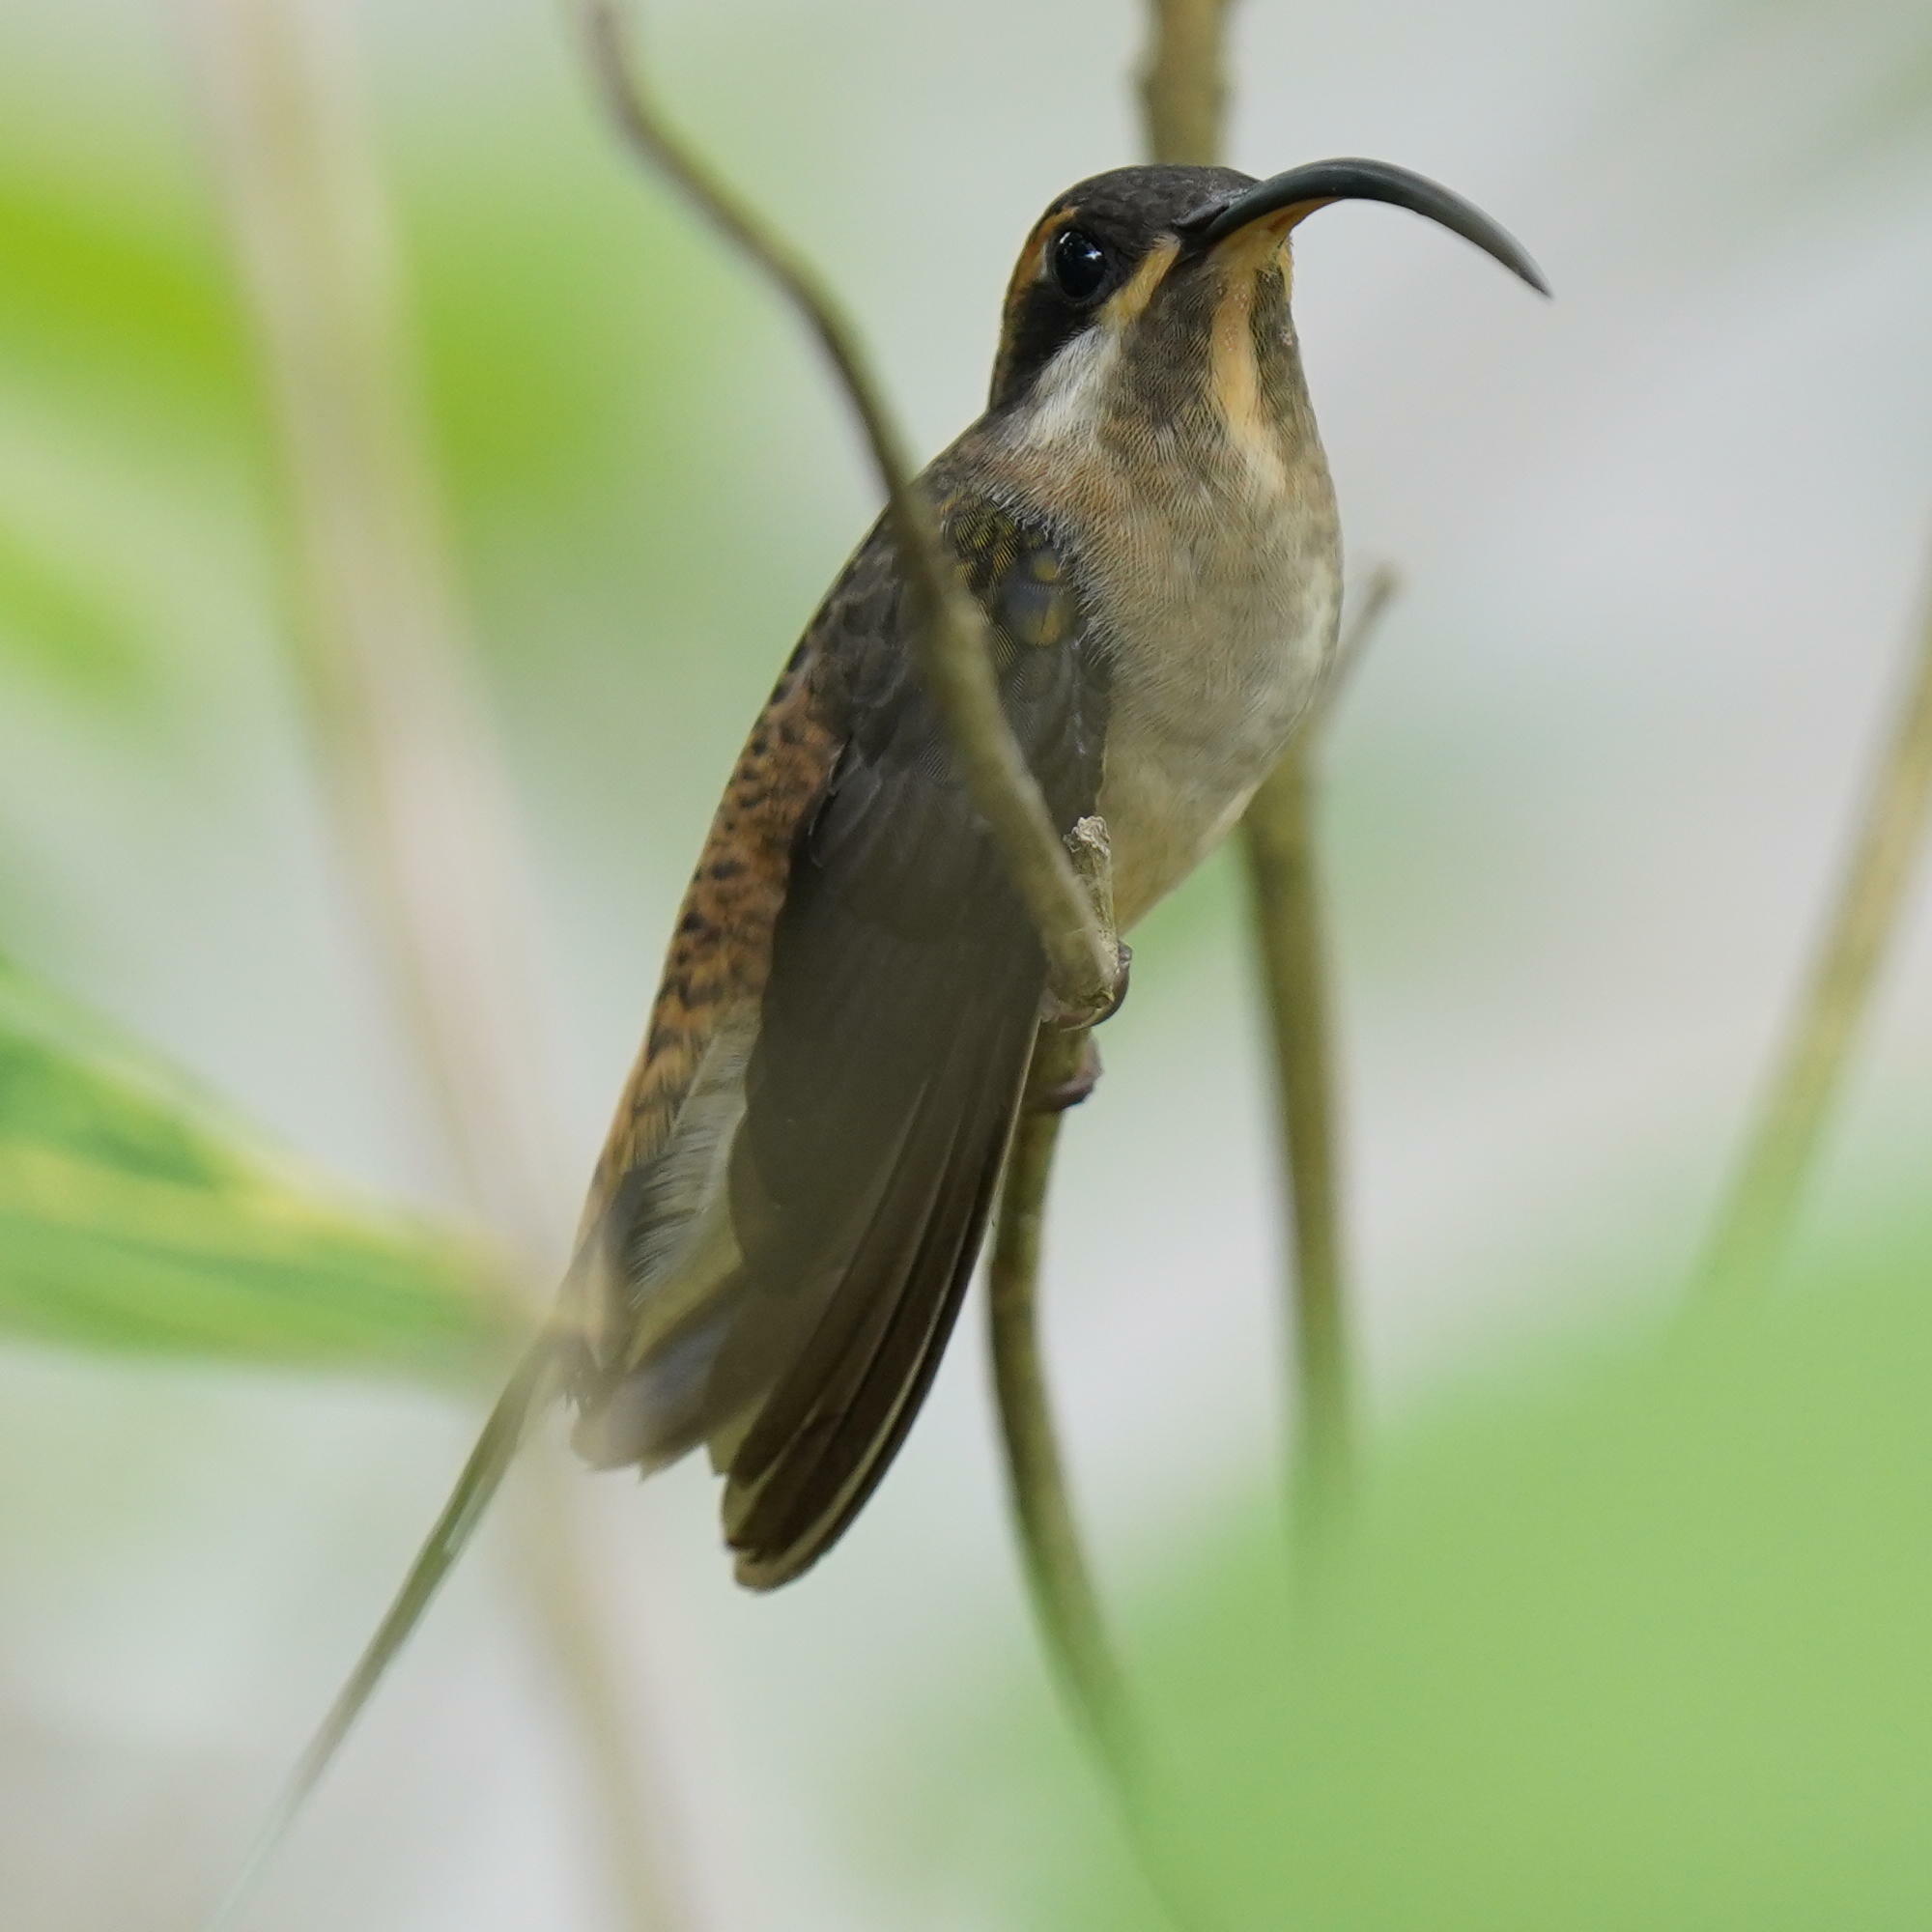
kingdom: Animalia
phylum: Chordata
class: Aves
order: Apodiformes
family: Trochilidae
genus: Phaethornis
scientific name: Phaethornis longirostris
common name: Long-billed hermit
